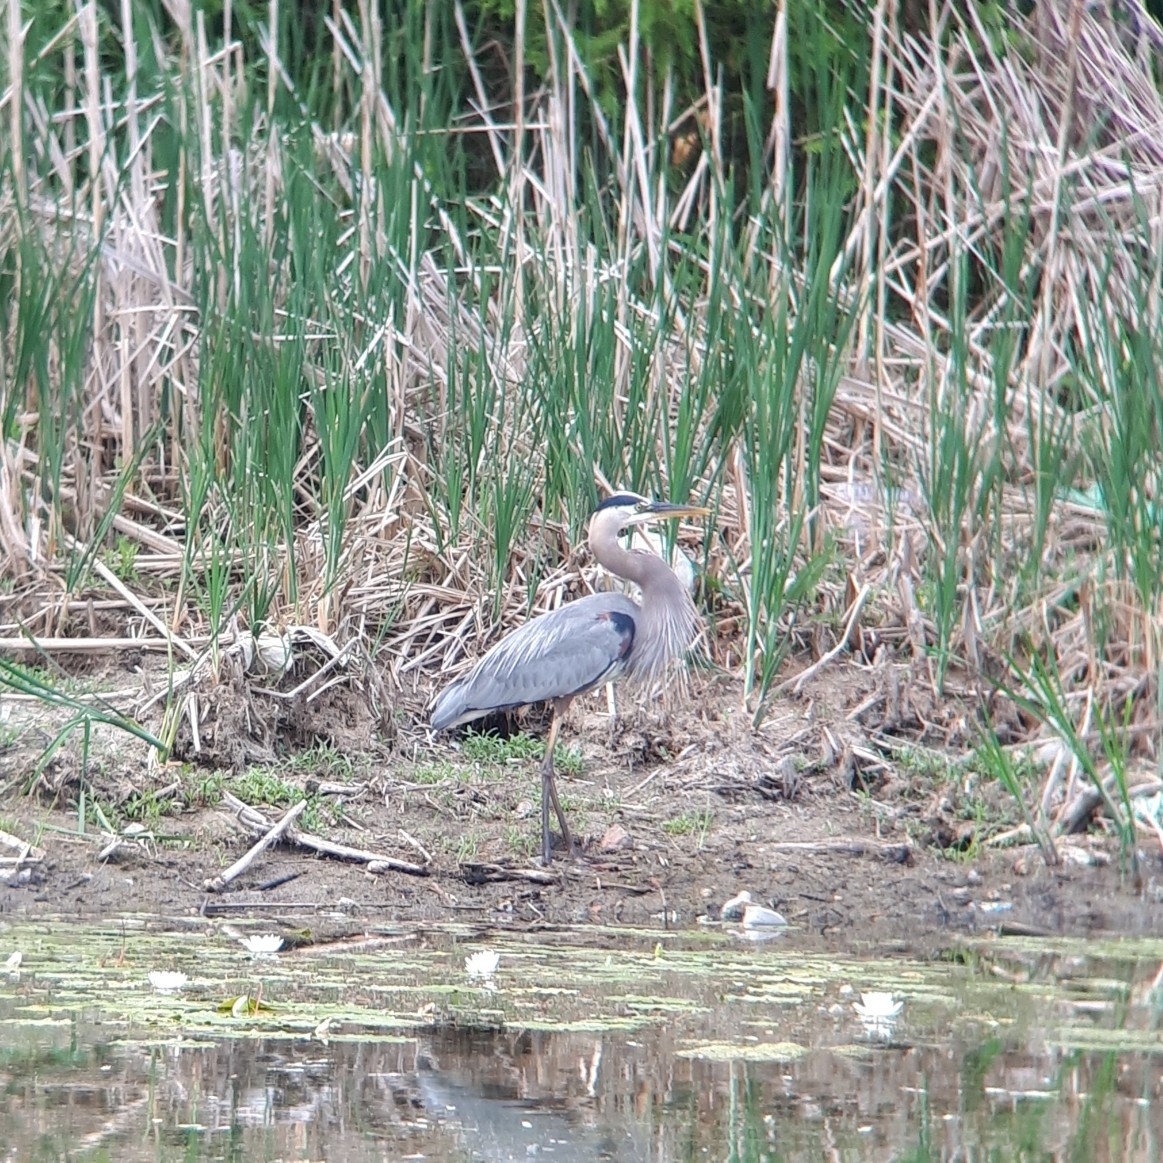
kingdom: Animalia
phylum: Chordata
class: Aves
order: Pelecaniformes
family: Ardeidae
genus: Ardea
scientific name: Ardea herodias
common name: Great blue heron
